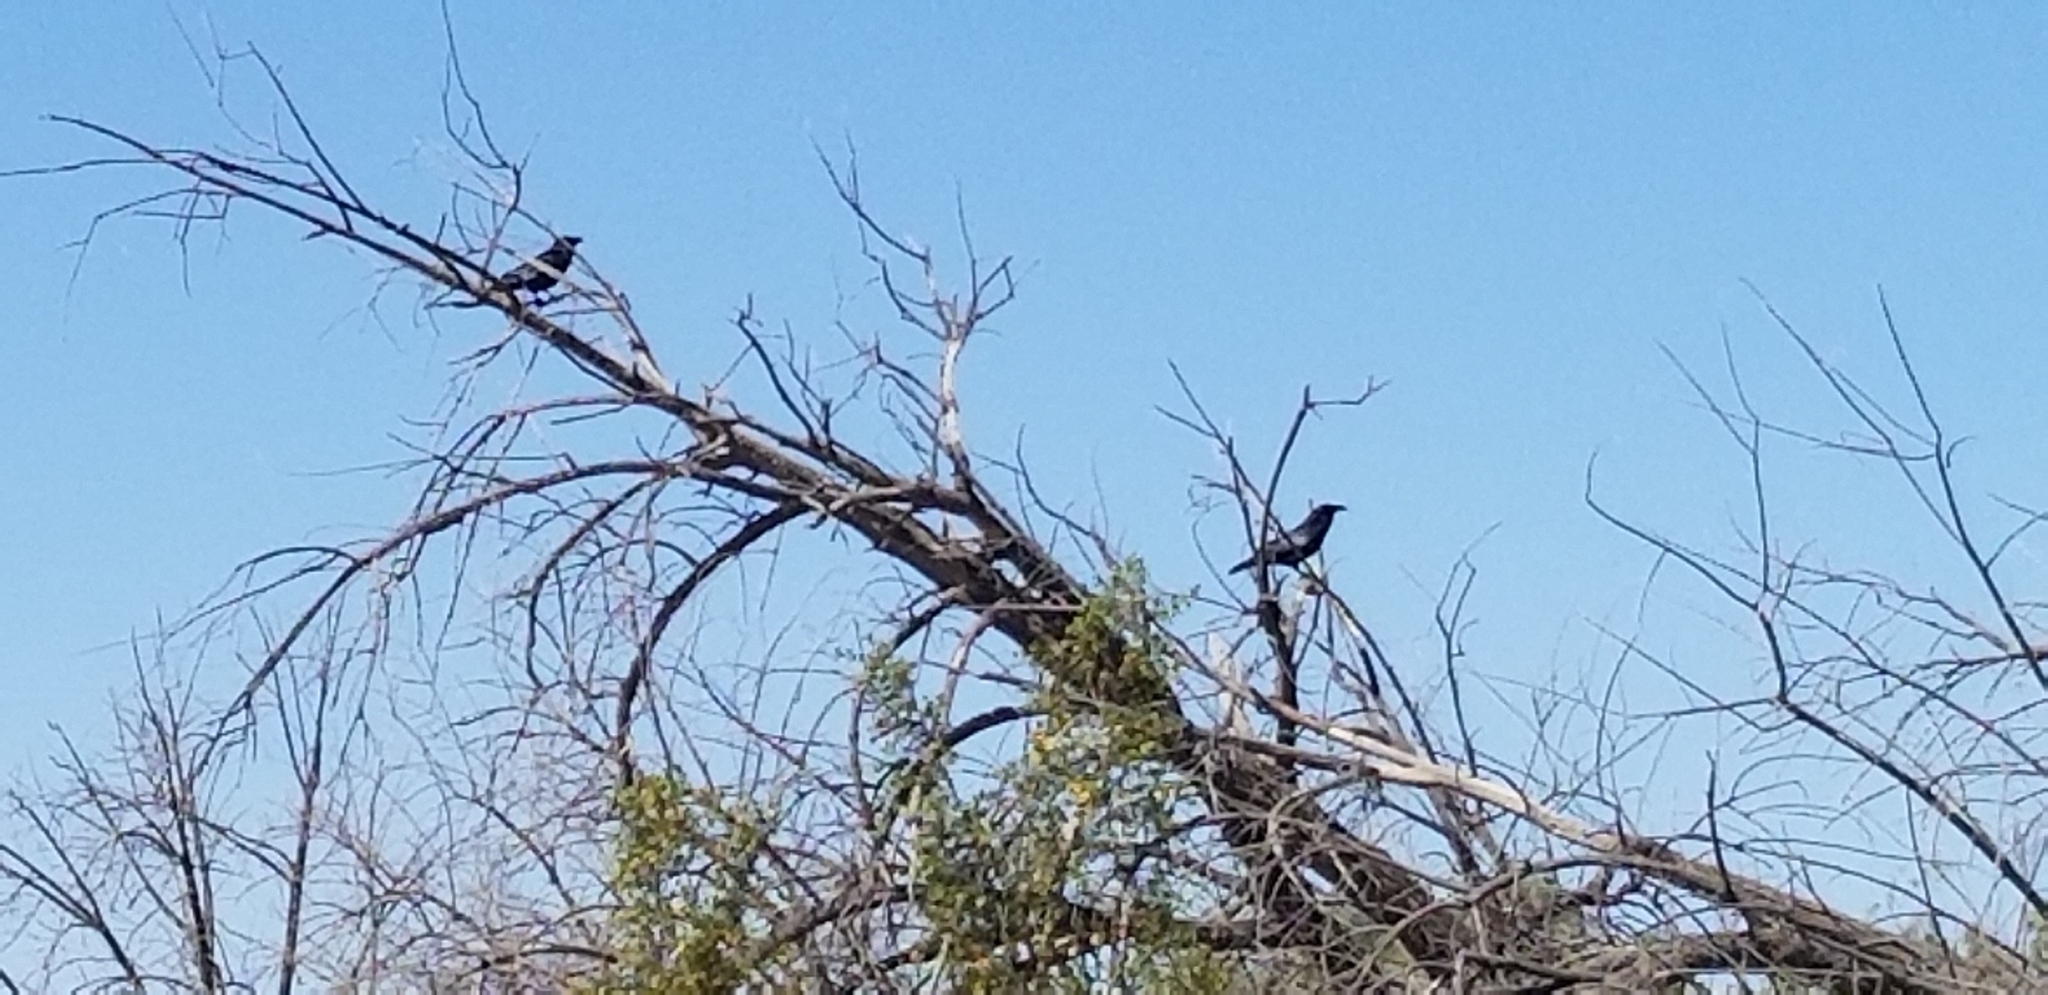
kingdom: Animalia
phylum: Chordata
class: Aves
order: Passeriformes
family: Corvidae
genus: Corvus
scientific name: Corvus corax
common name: Common raven
